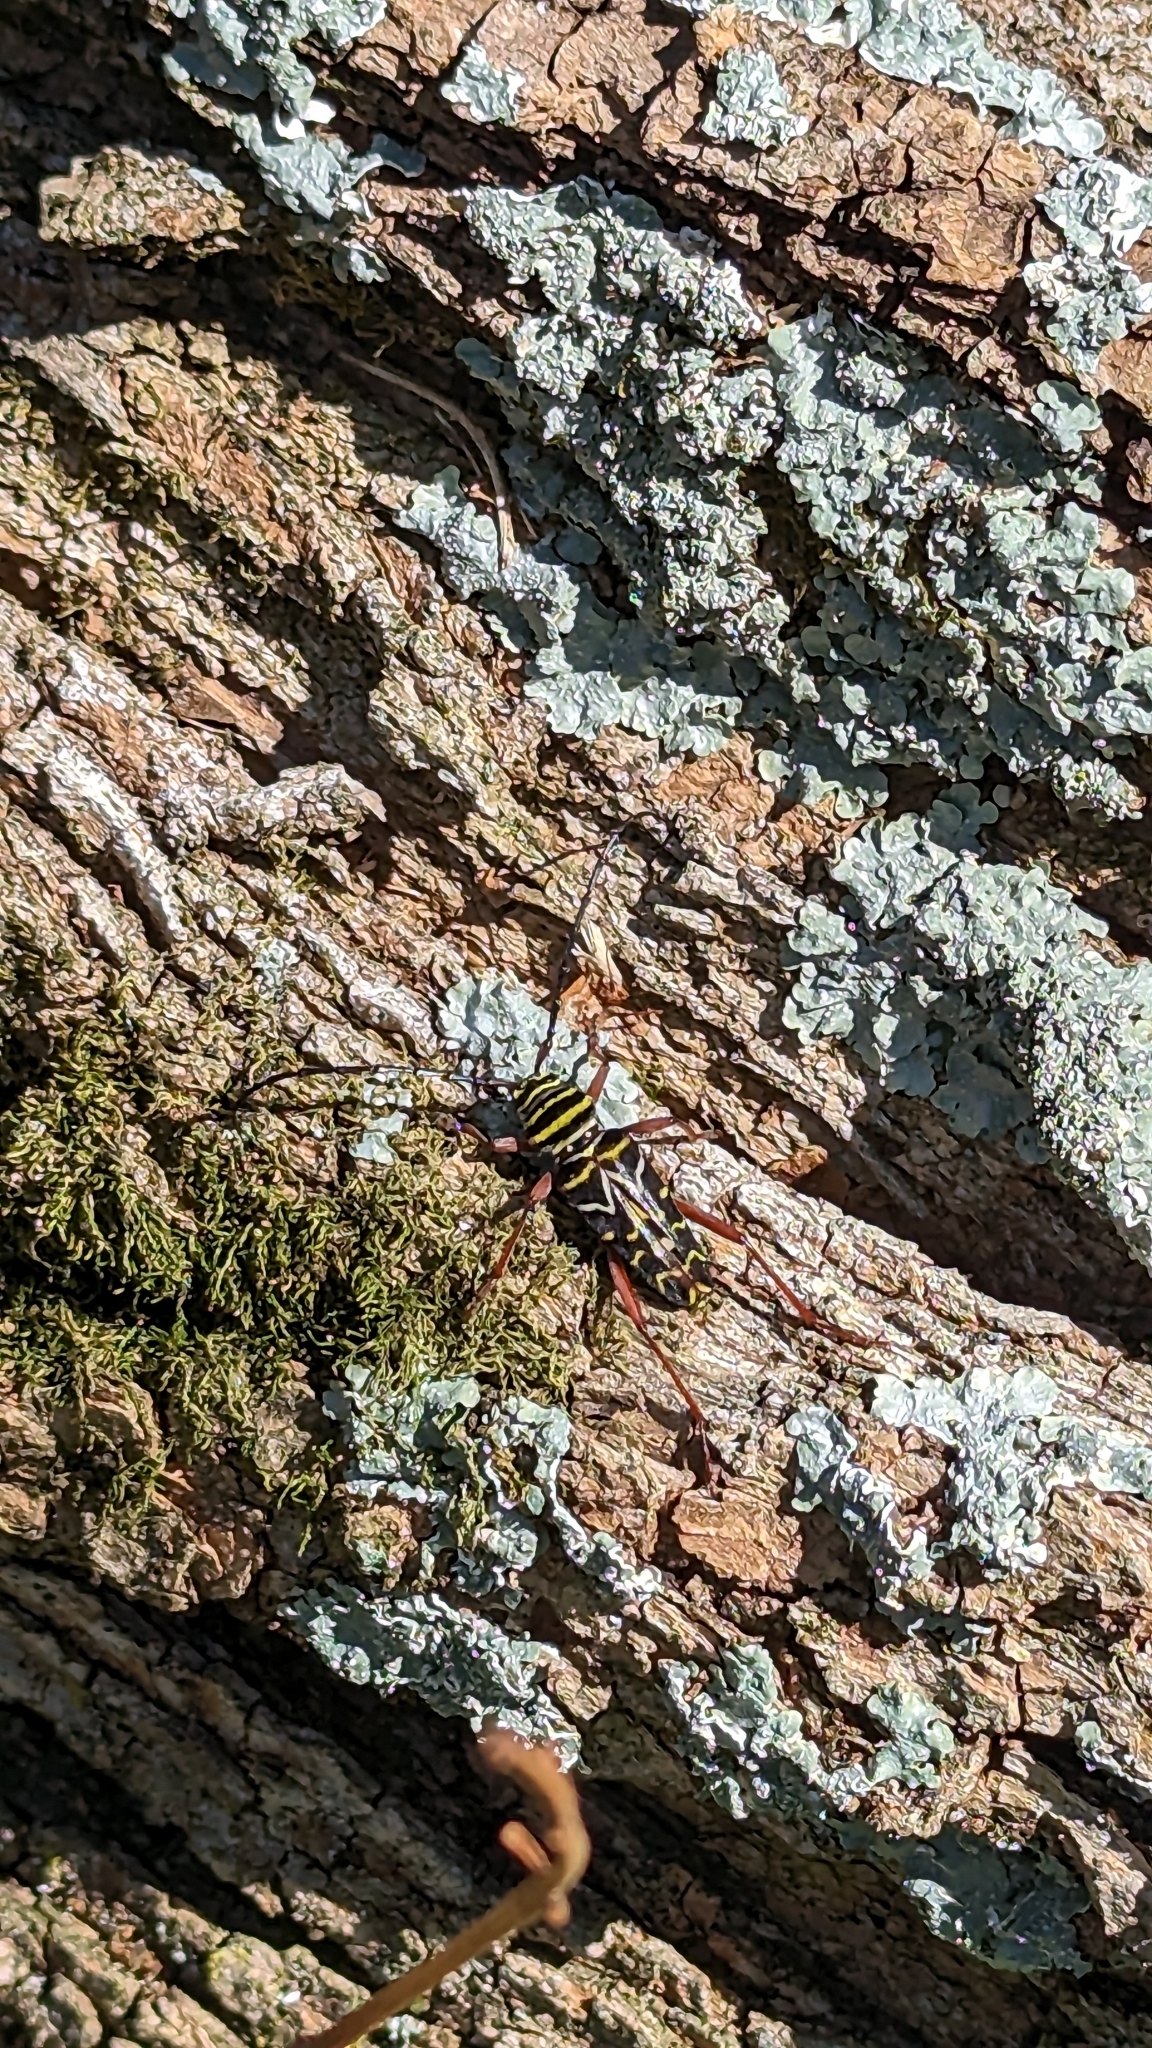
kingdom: Animalia
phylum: Arthropoda
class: Insecta
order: Coleoptera
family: Cerambycidae
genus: Megacyllene
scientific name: Megacyllene caryae
